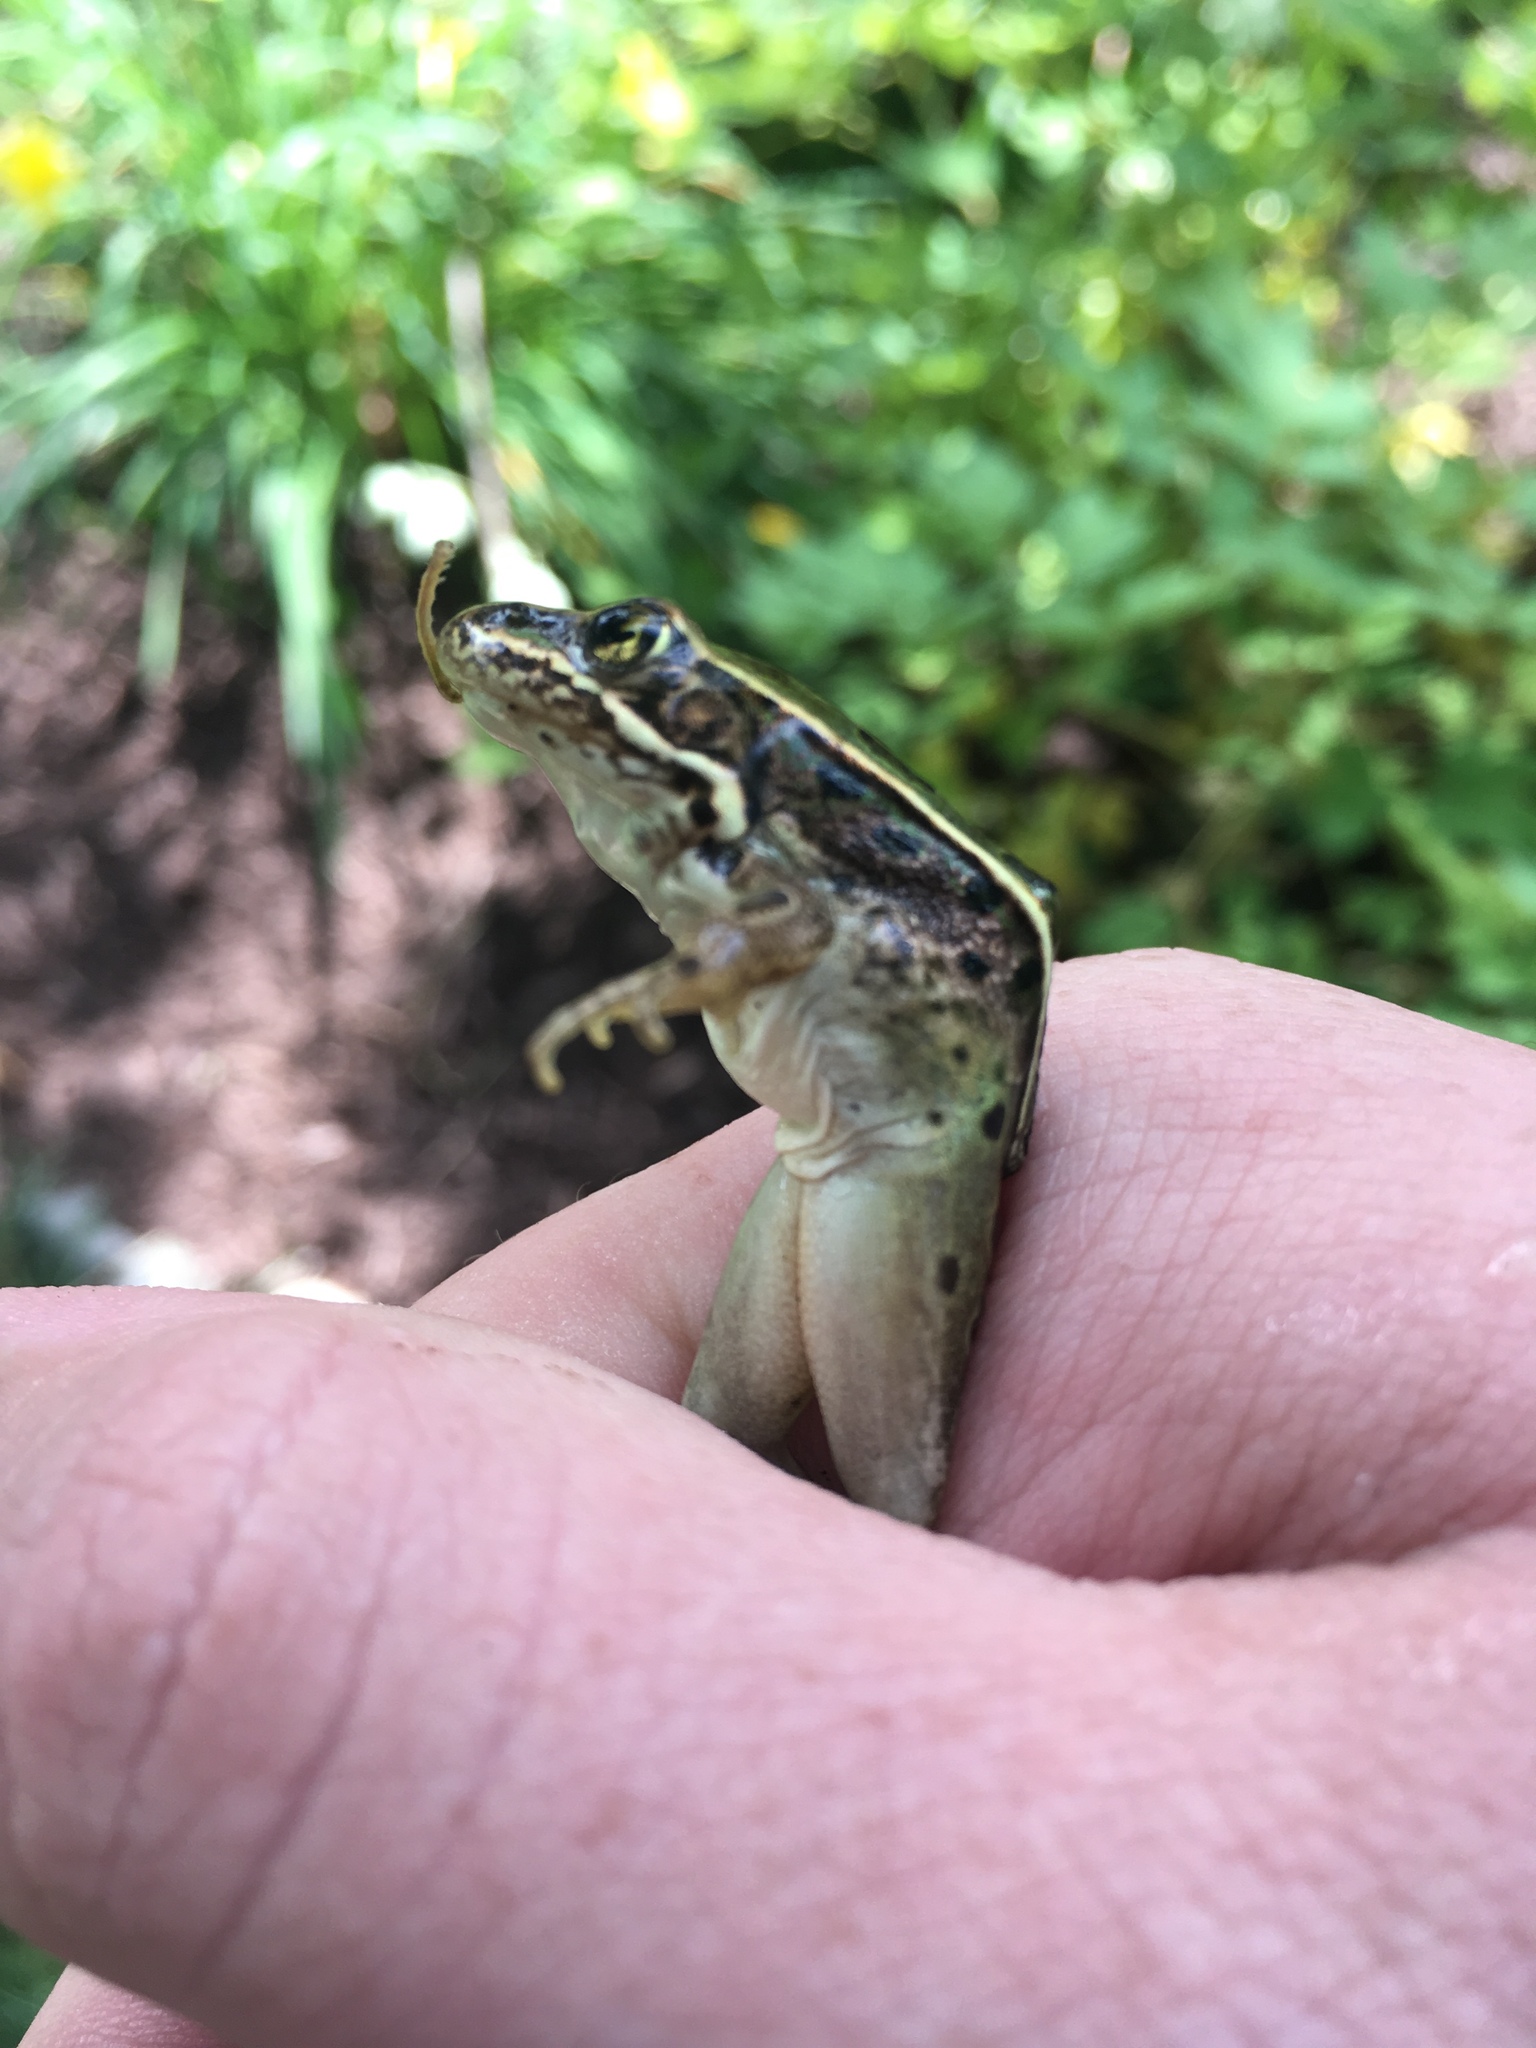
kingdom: Animalia
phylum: Chordata
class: Amphibia
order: Anura
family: Ranidae
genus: Lithobates
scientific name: Lithobates pipiens
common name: Northern leopard frog
